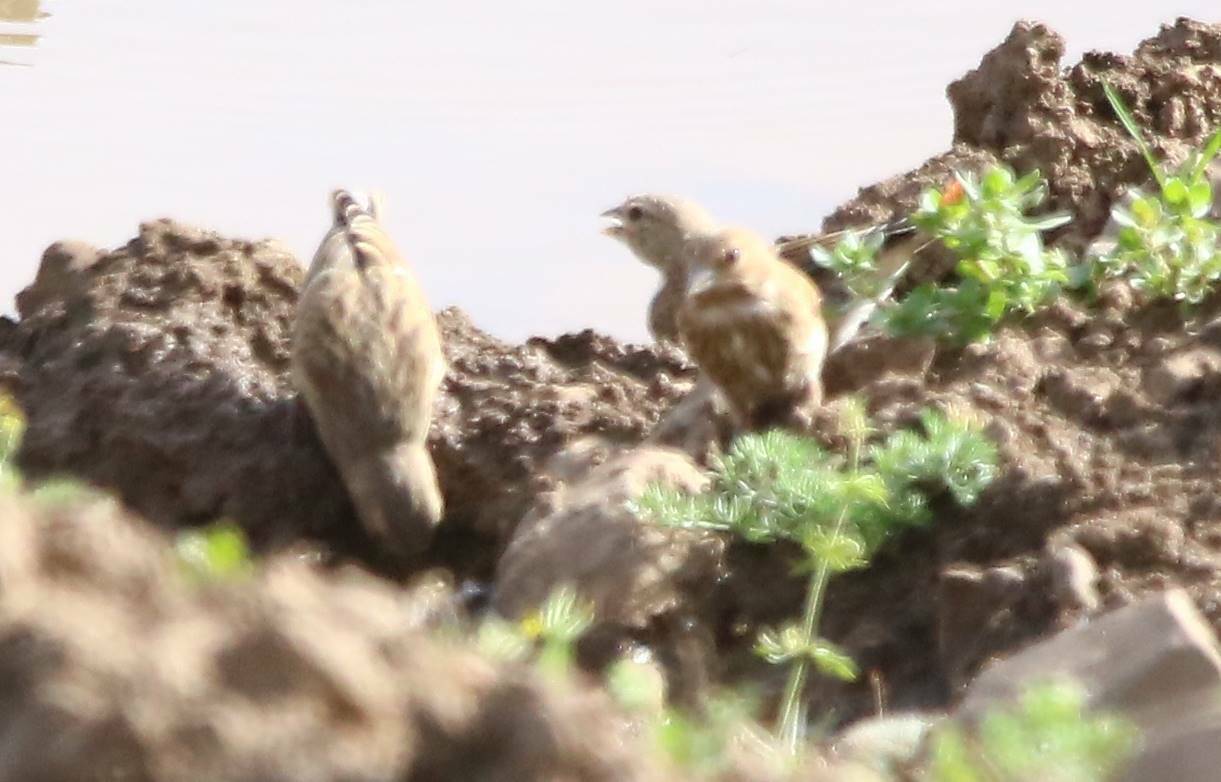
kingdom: Animalia
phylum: Chordata
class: Aves
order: Passeriformes
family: Fringillidae
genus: Linaria
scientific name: Linaria cannabina
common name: Common linnet
